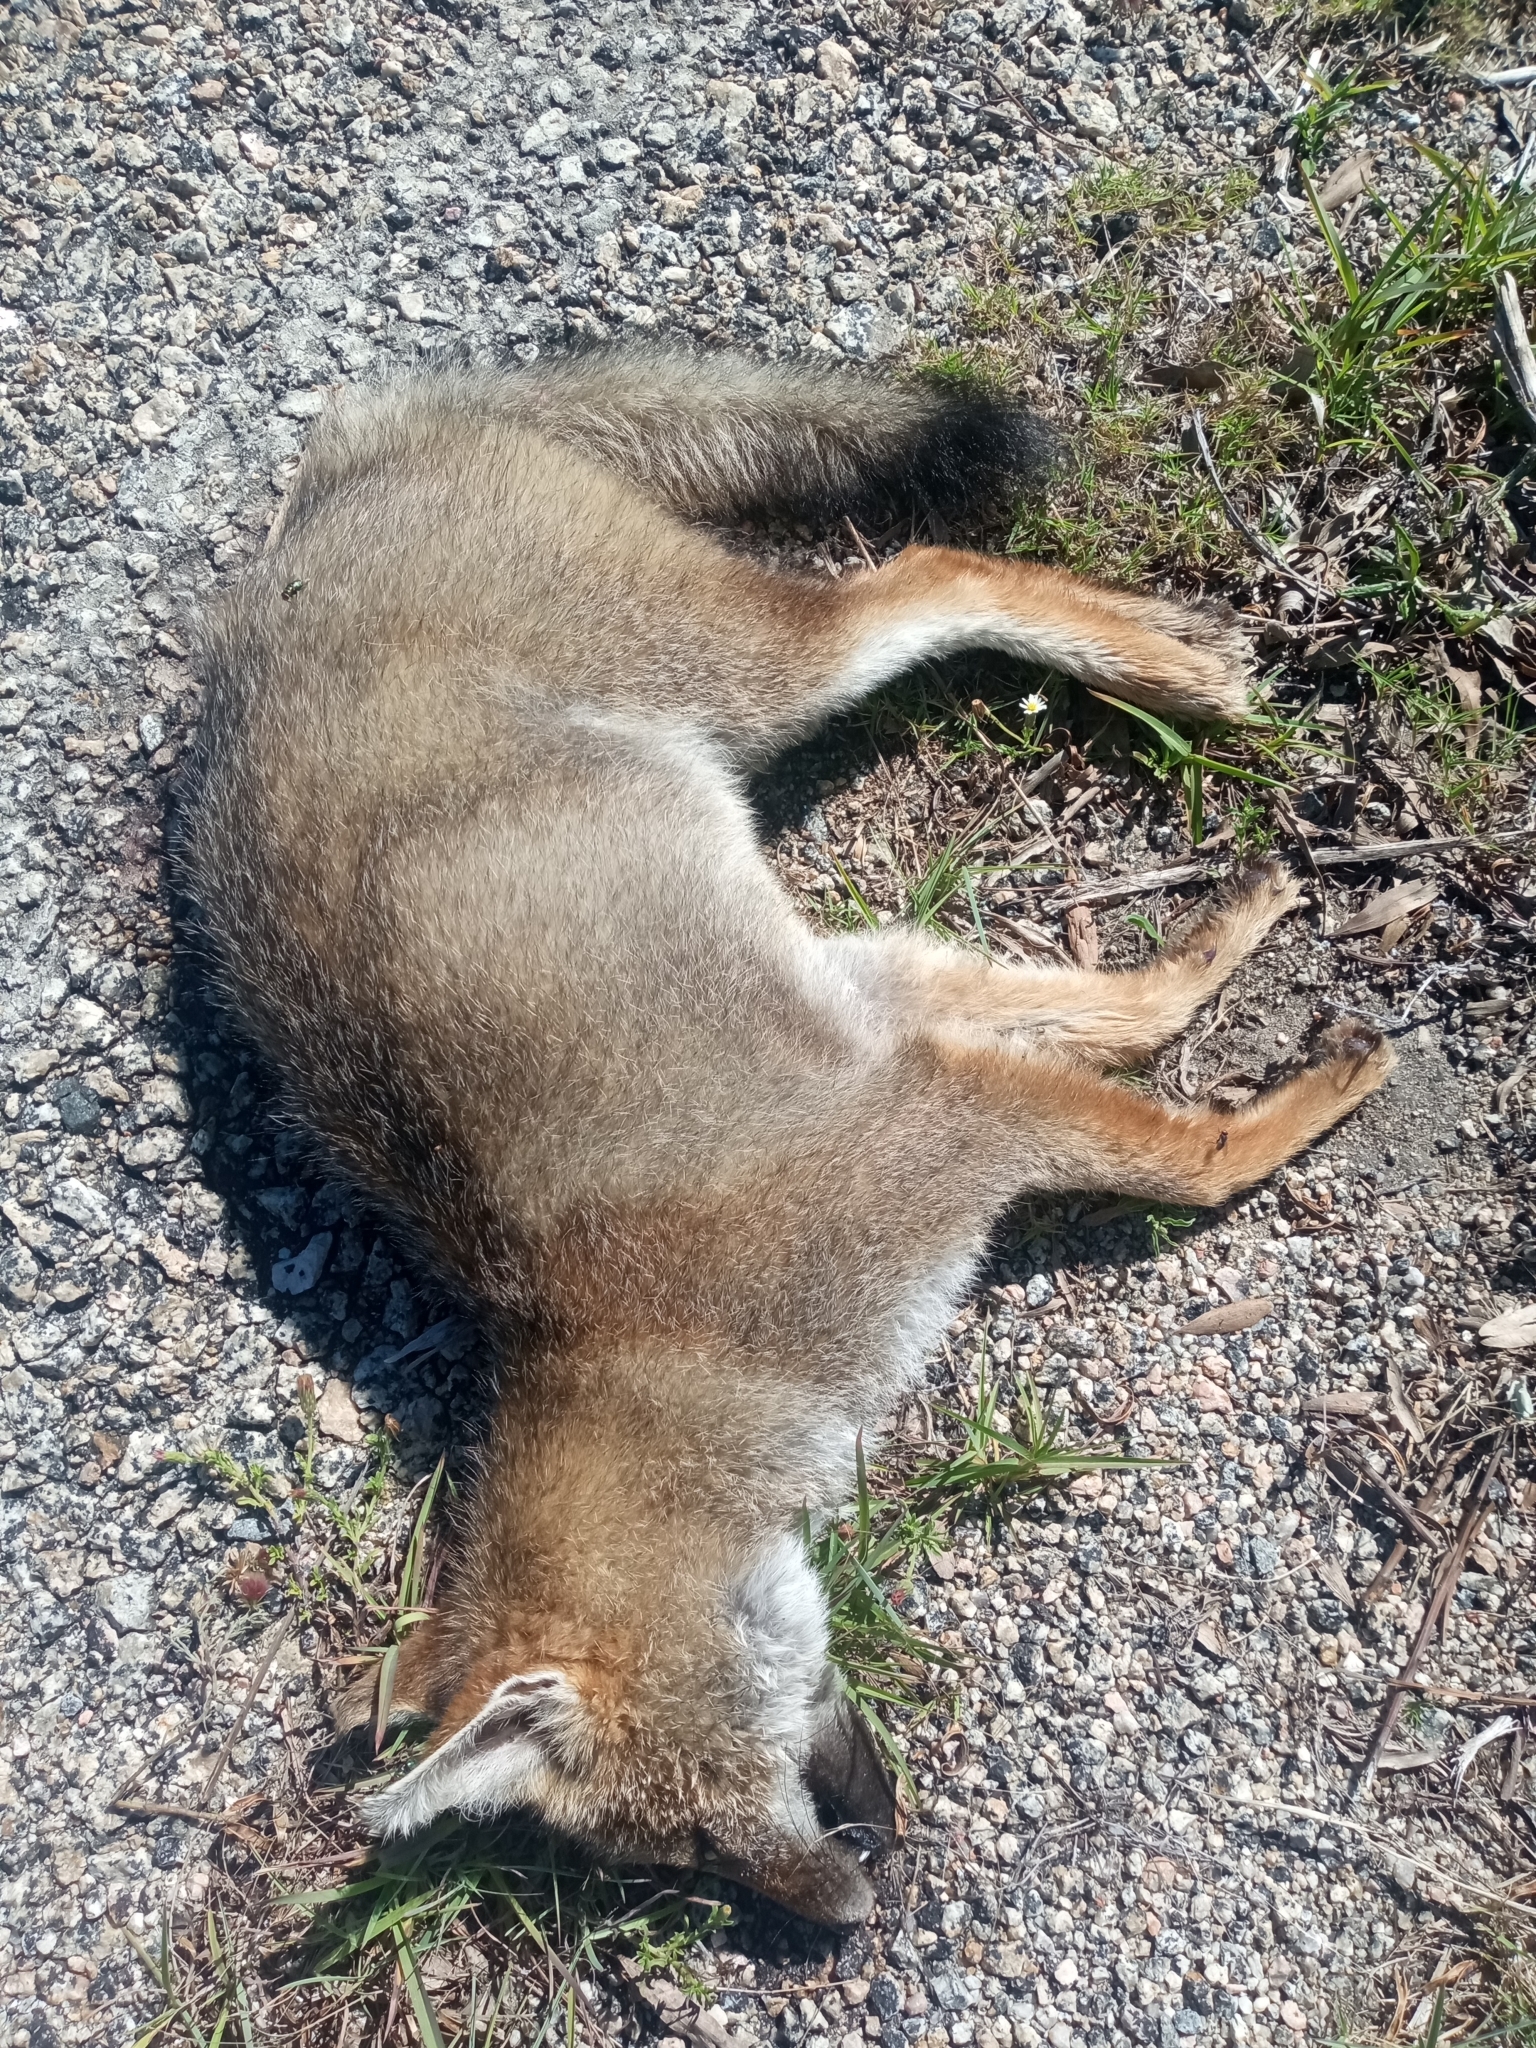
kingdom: Animalia
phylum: Chordata
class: Mammalia
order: Carnivora
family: Canidae
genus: Lycalopex
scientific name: Lycalopex gymnocercus
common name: Pampas fox
